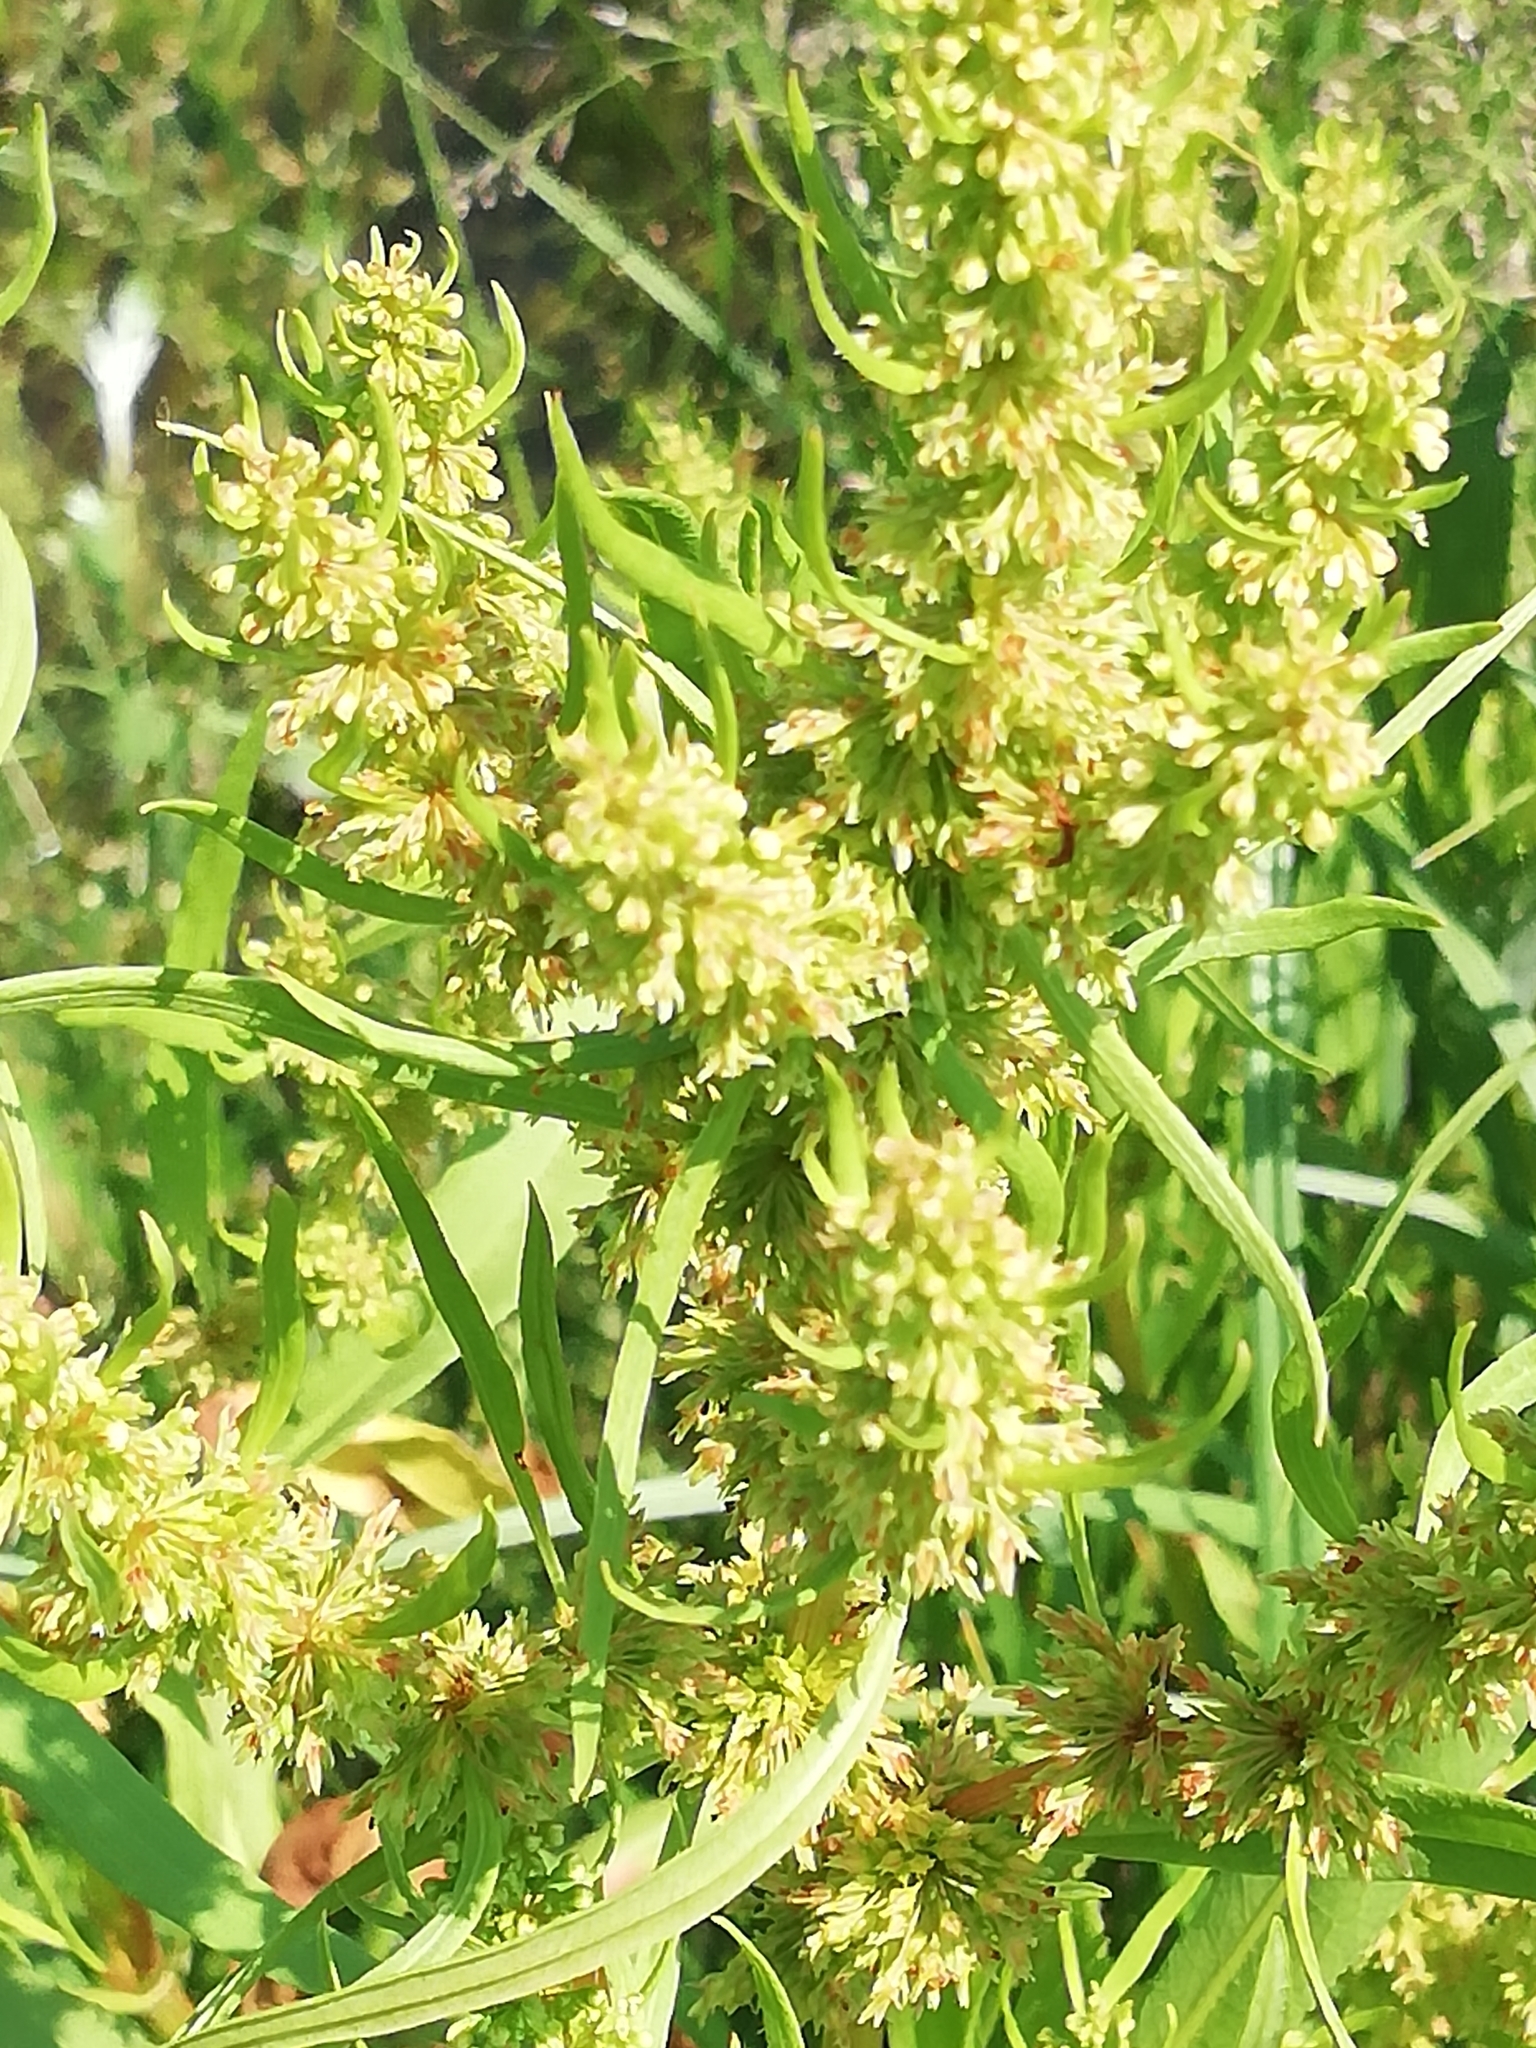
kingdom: Plantae
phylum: Tracheophyta
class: Magnoliopsida
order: Caryophyllales
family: Polygonaceae
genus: Rumex
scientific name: Rumex maritimus
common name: Golden dock
